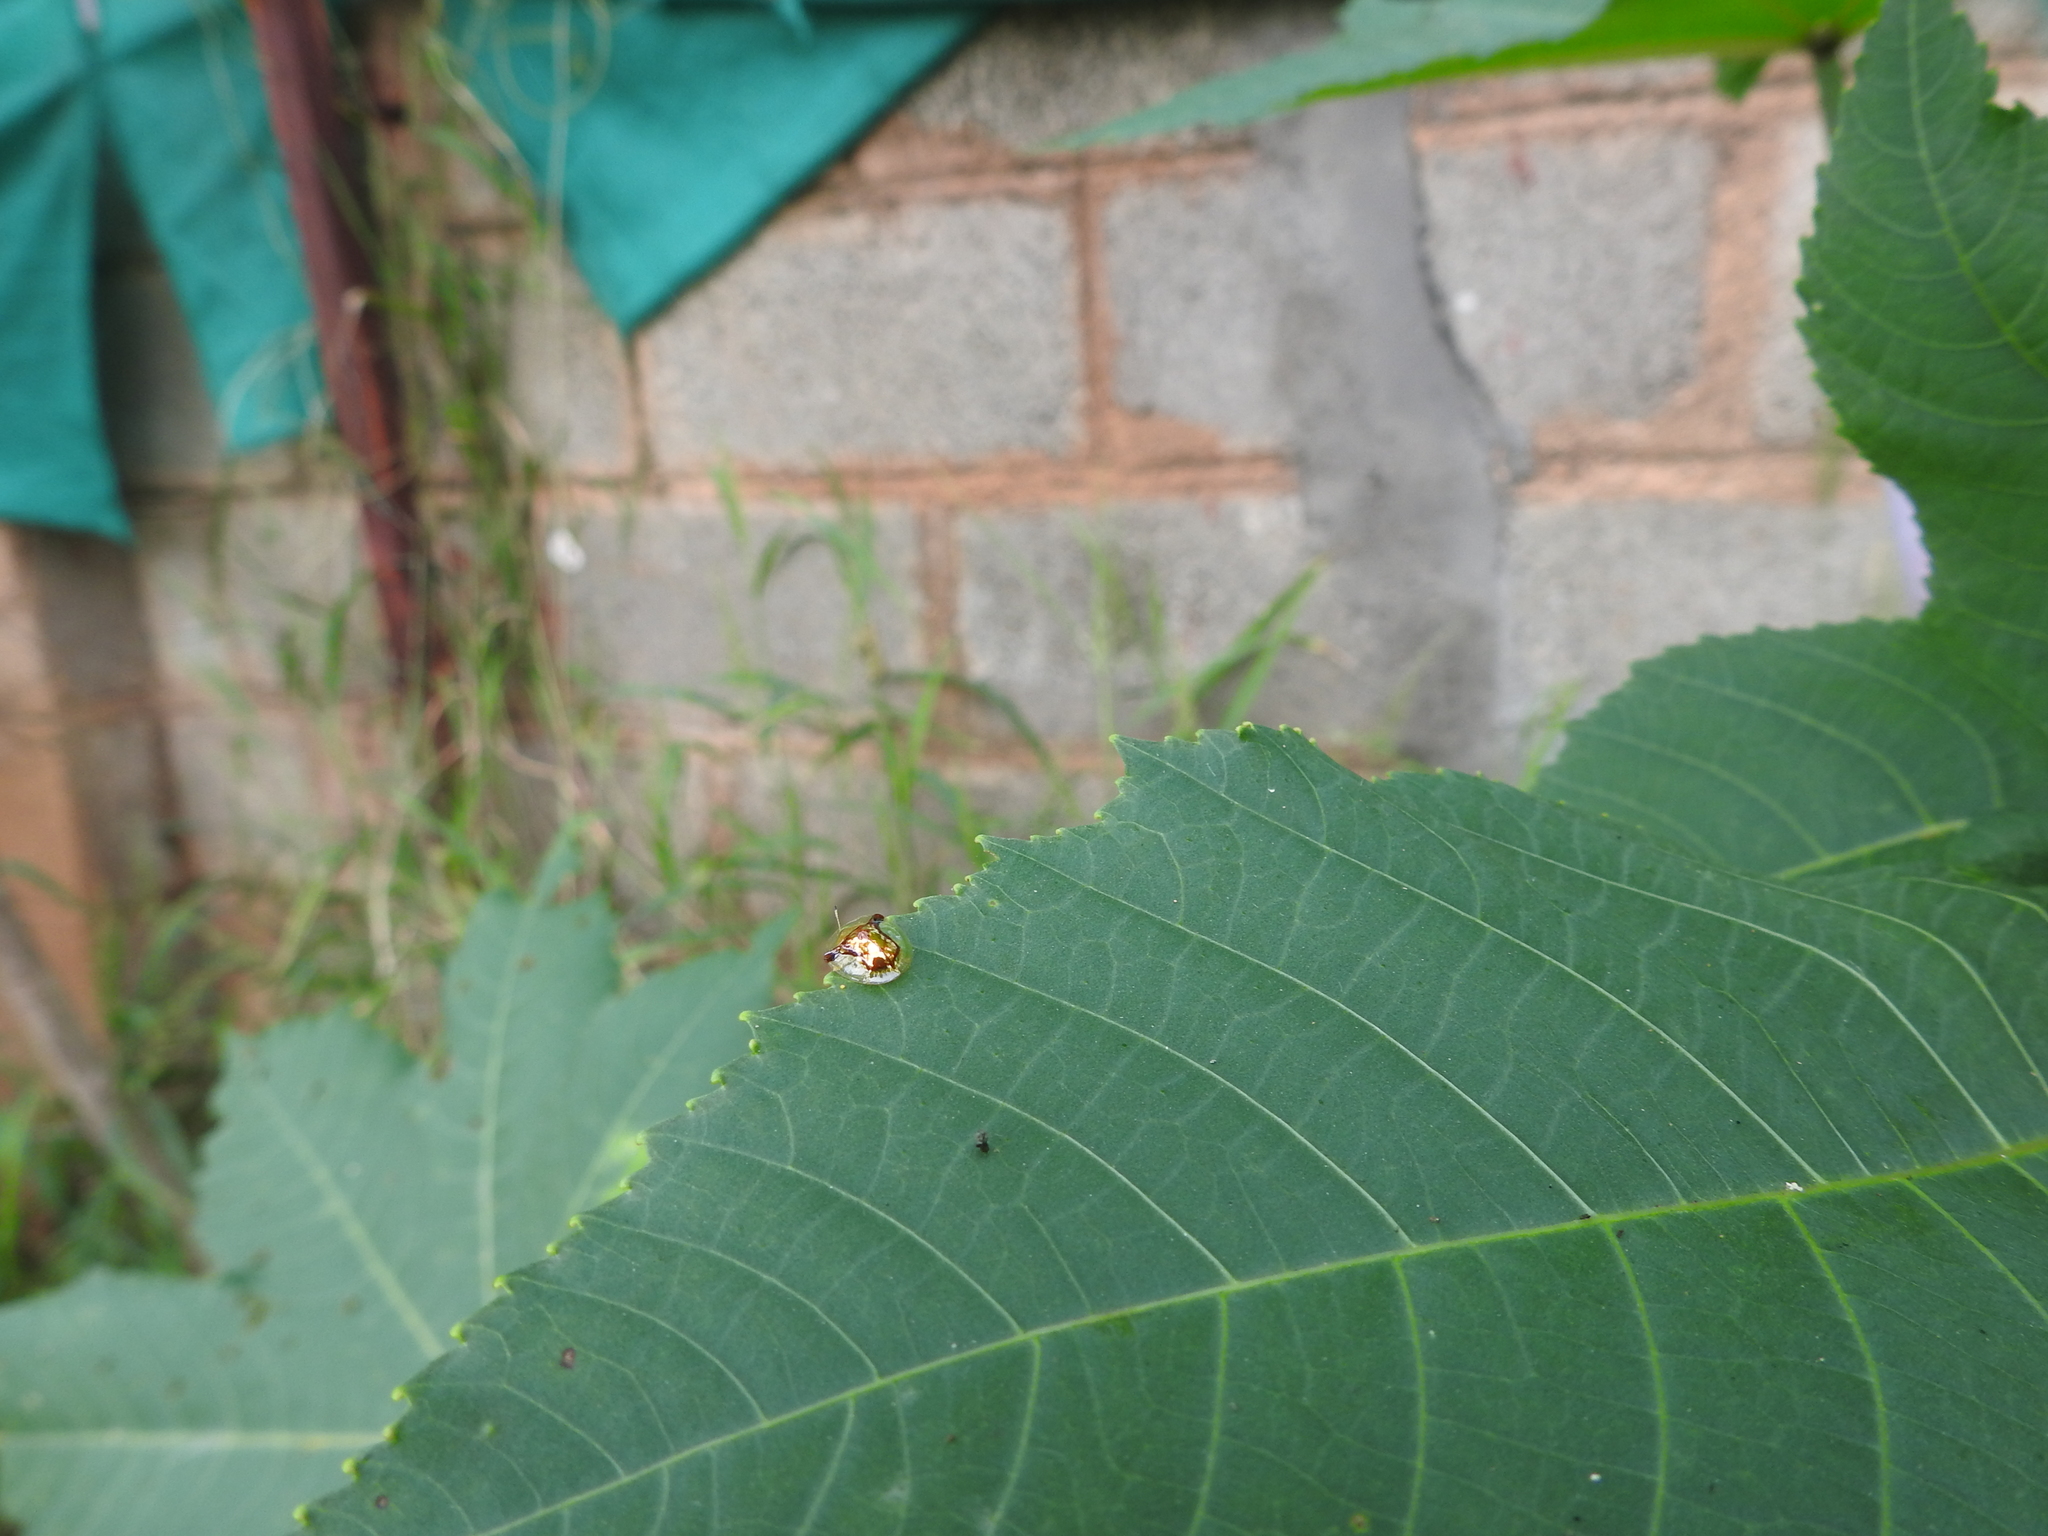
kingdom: Animalia
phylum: Arthropoda
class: Insecta
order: Coleoptera
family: Chrysomelidae
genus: Aspidimorpha
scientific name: Aspidimorpha furcata
